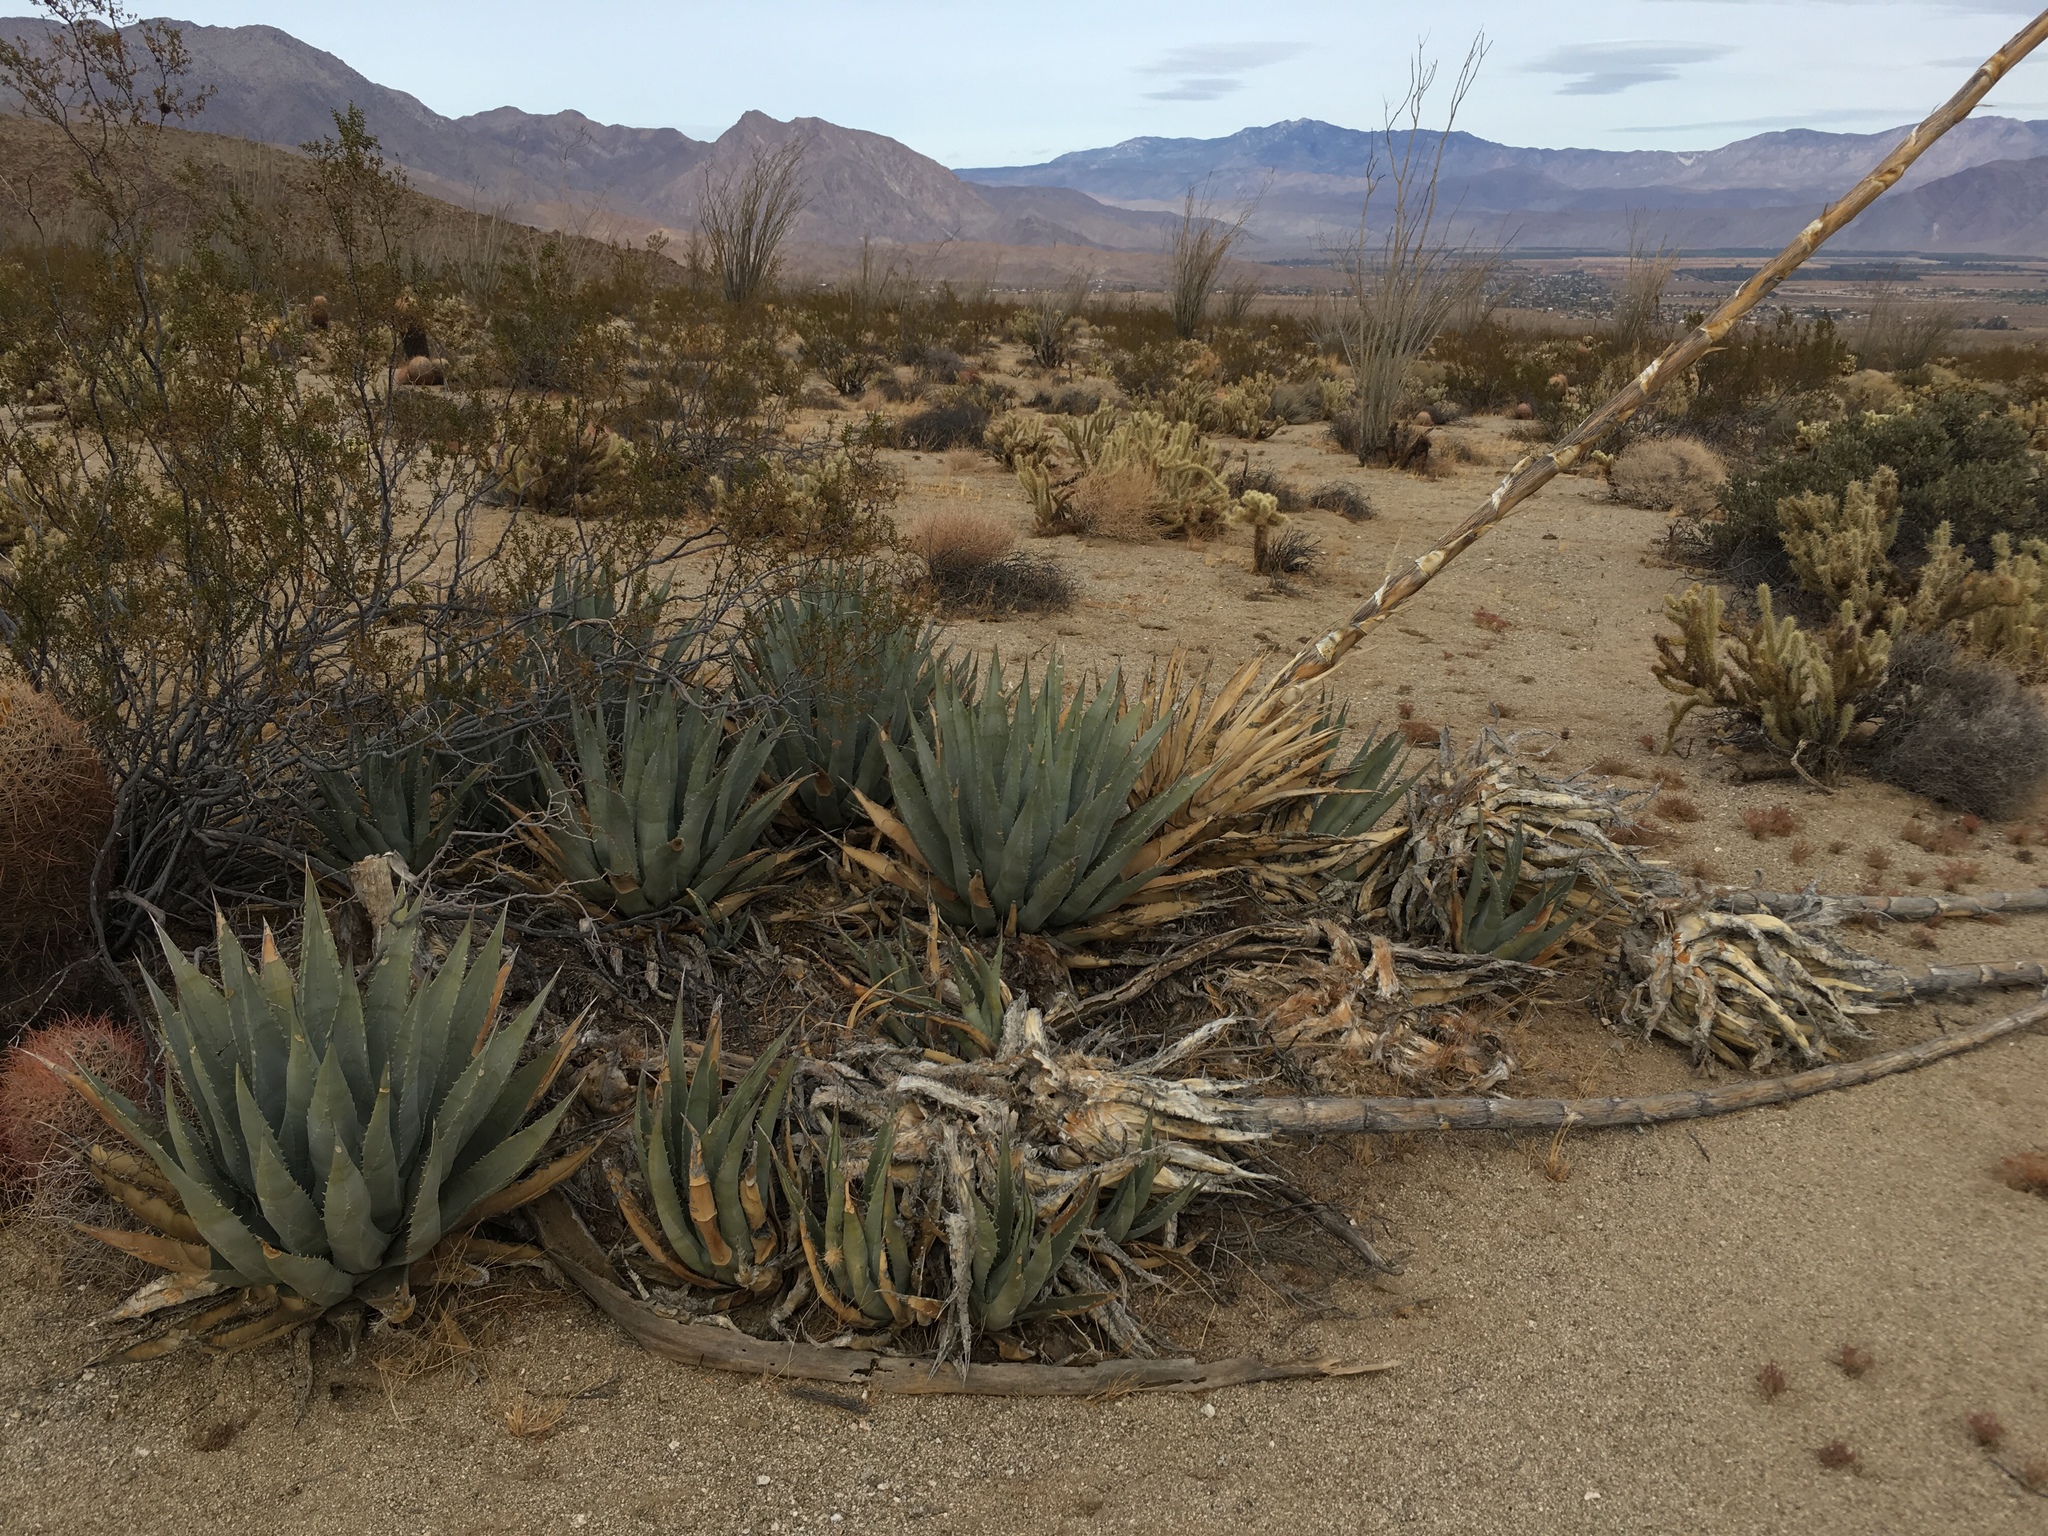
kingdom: Plantae
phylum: Tracheophyta
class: Liliopsida
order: Asparagales
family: Asparagaceae
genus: Agave
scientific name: Agave deserti
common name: Desert agave
